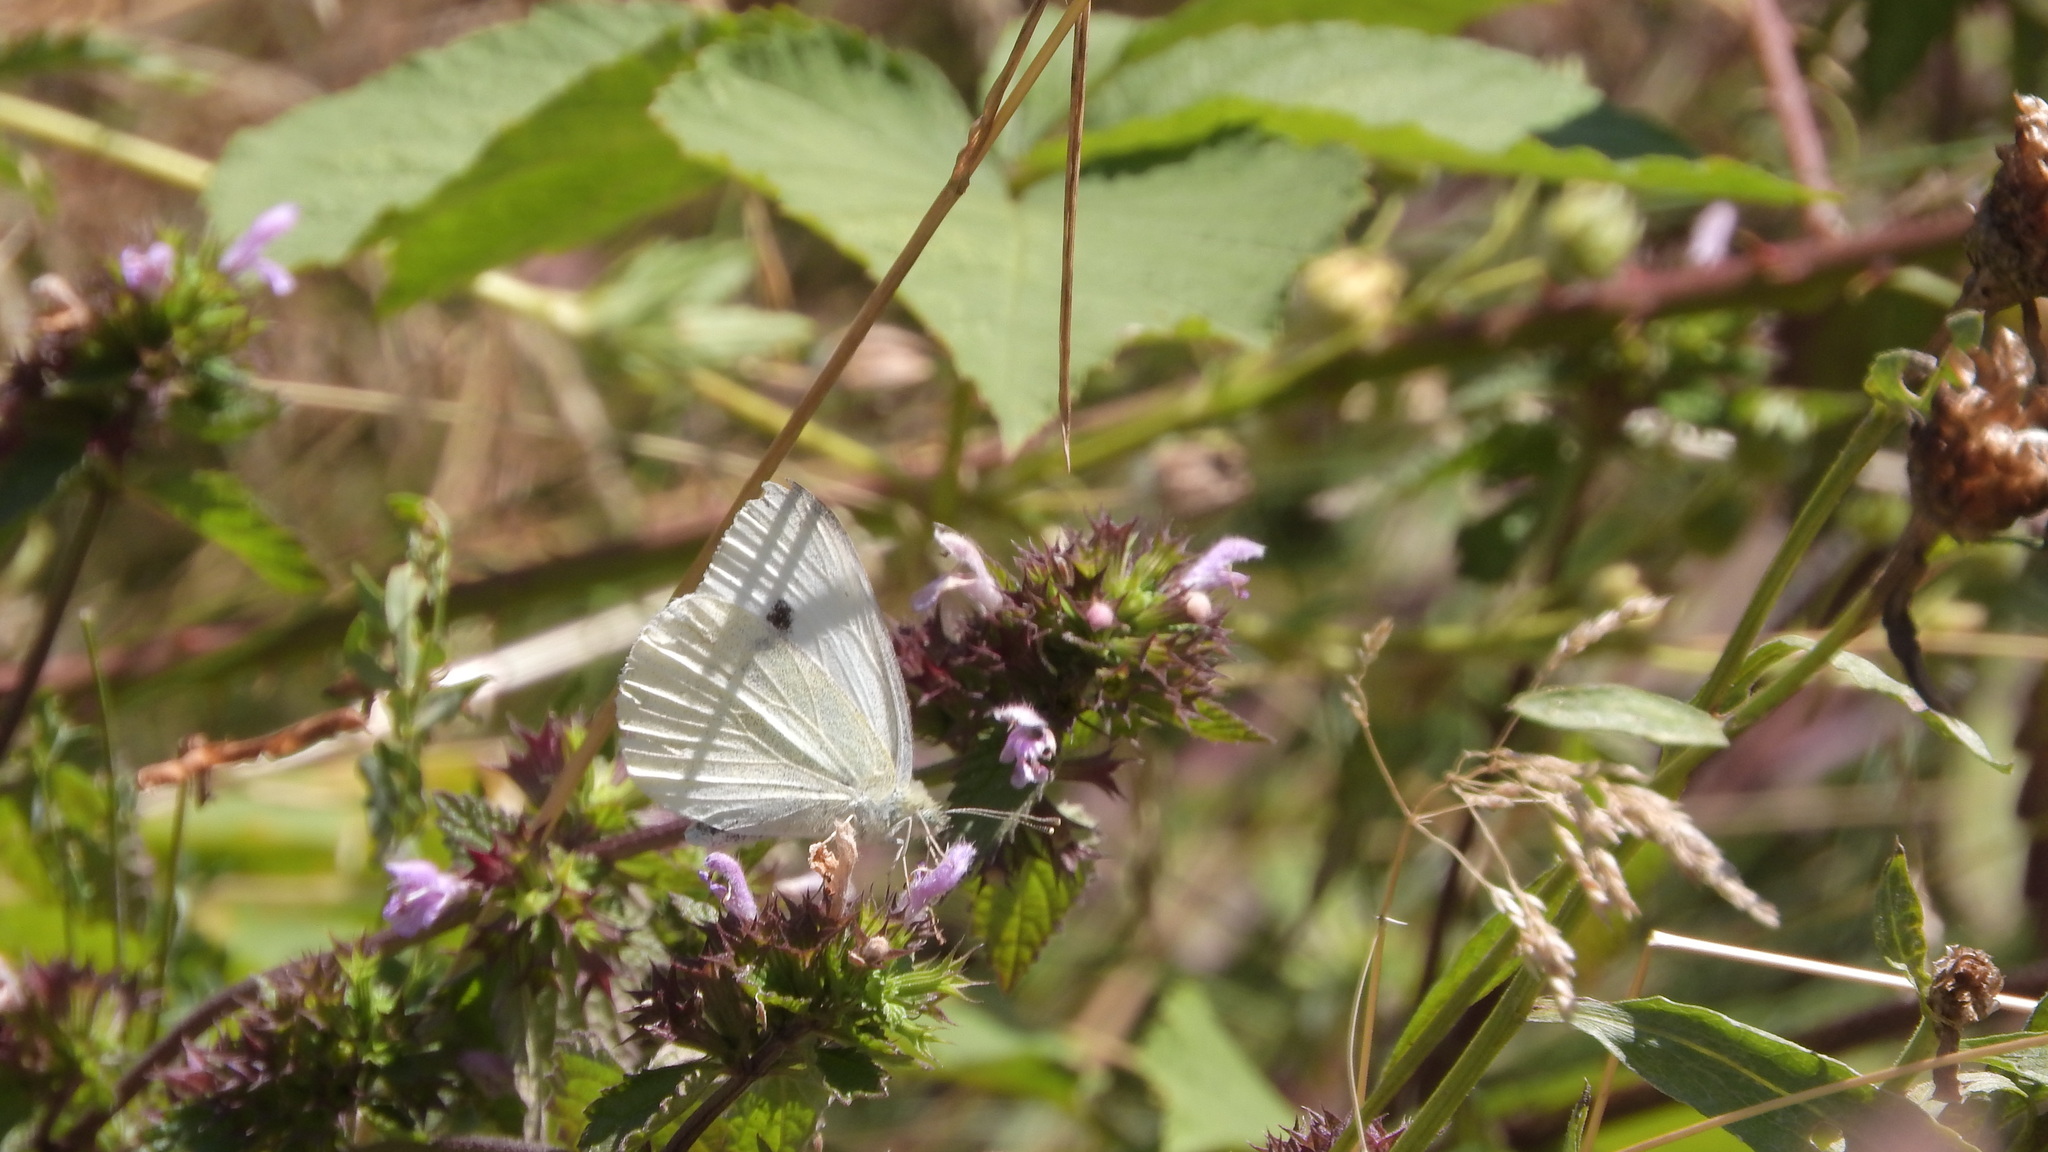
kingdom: Animalia
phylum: Arthropoda
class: Insecta
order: Lepidoptera
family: Pieridae
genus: Pieris
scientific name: Pieris rapae
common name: Small white
